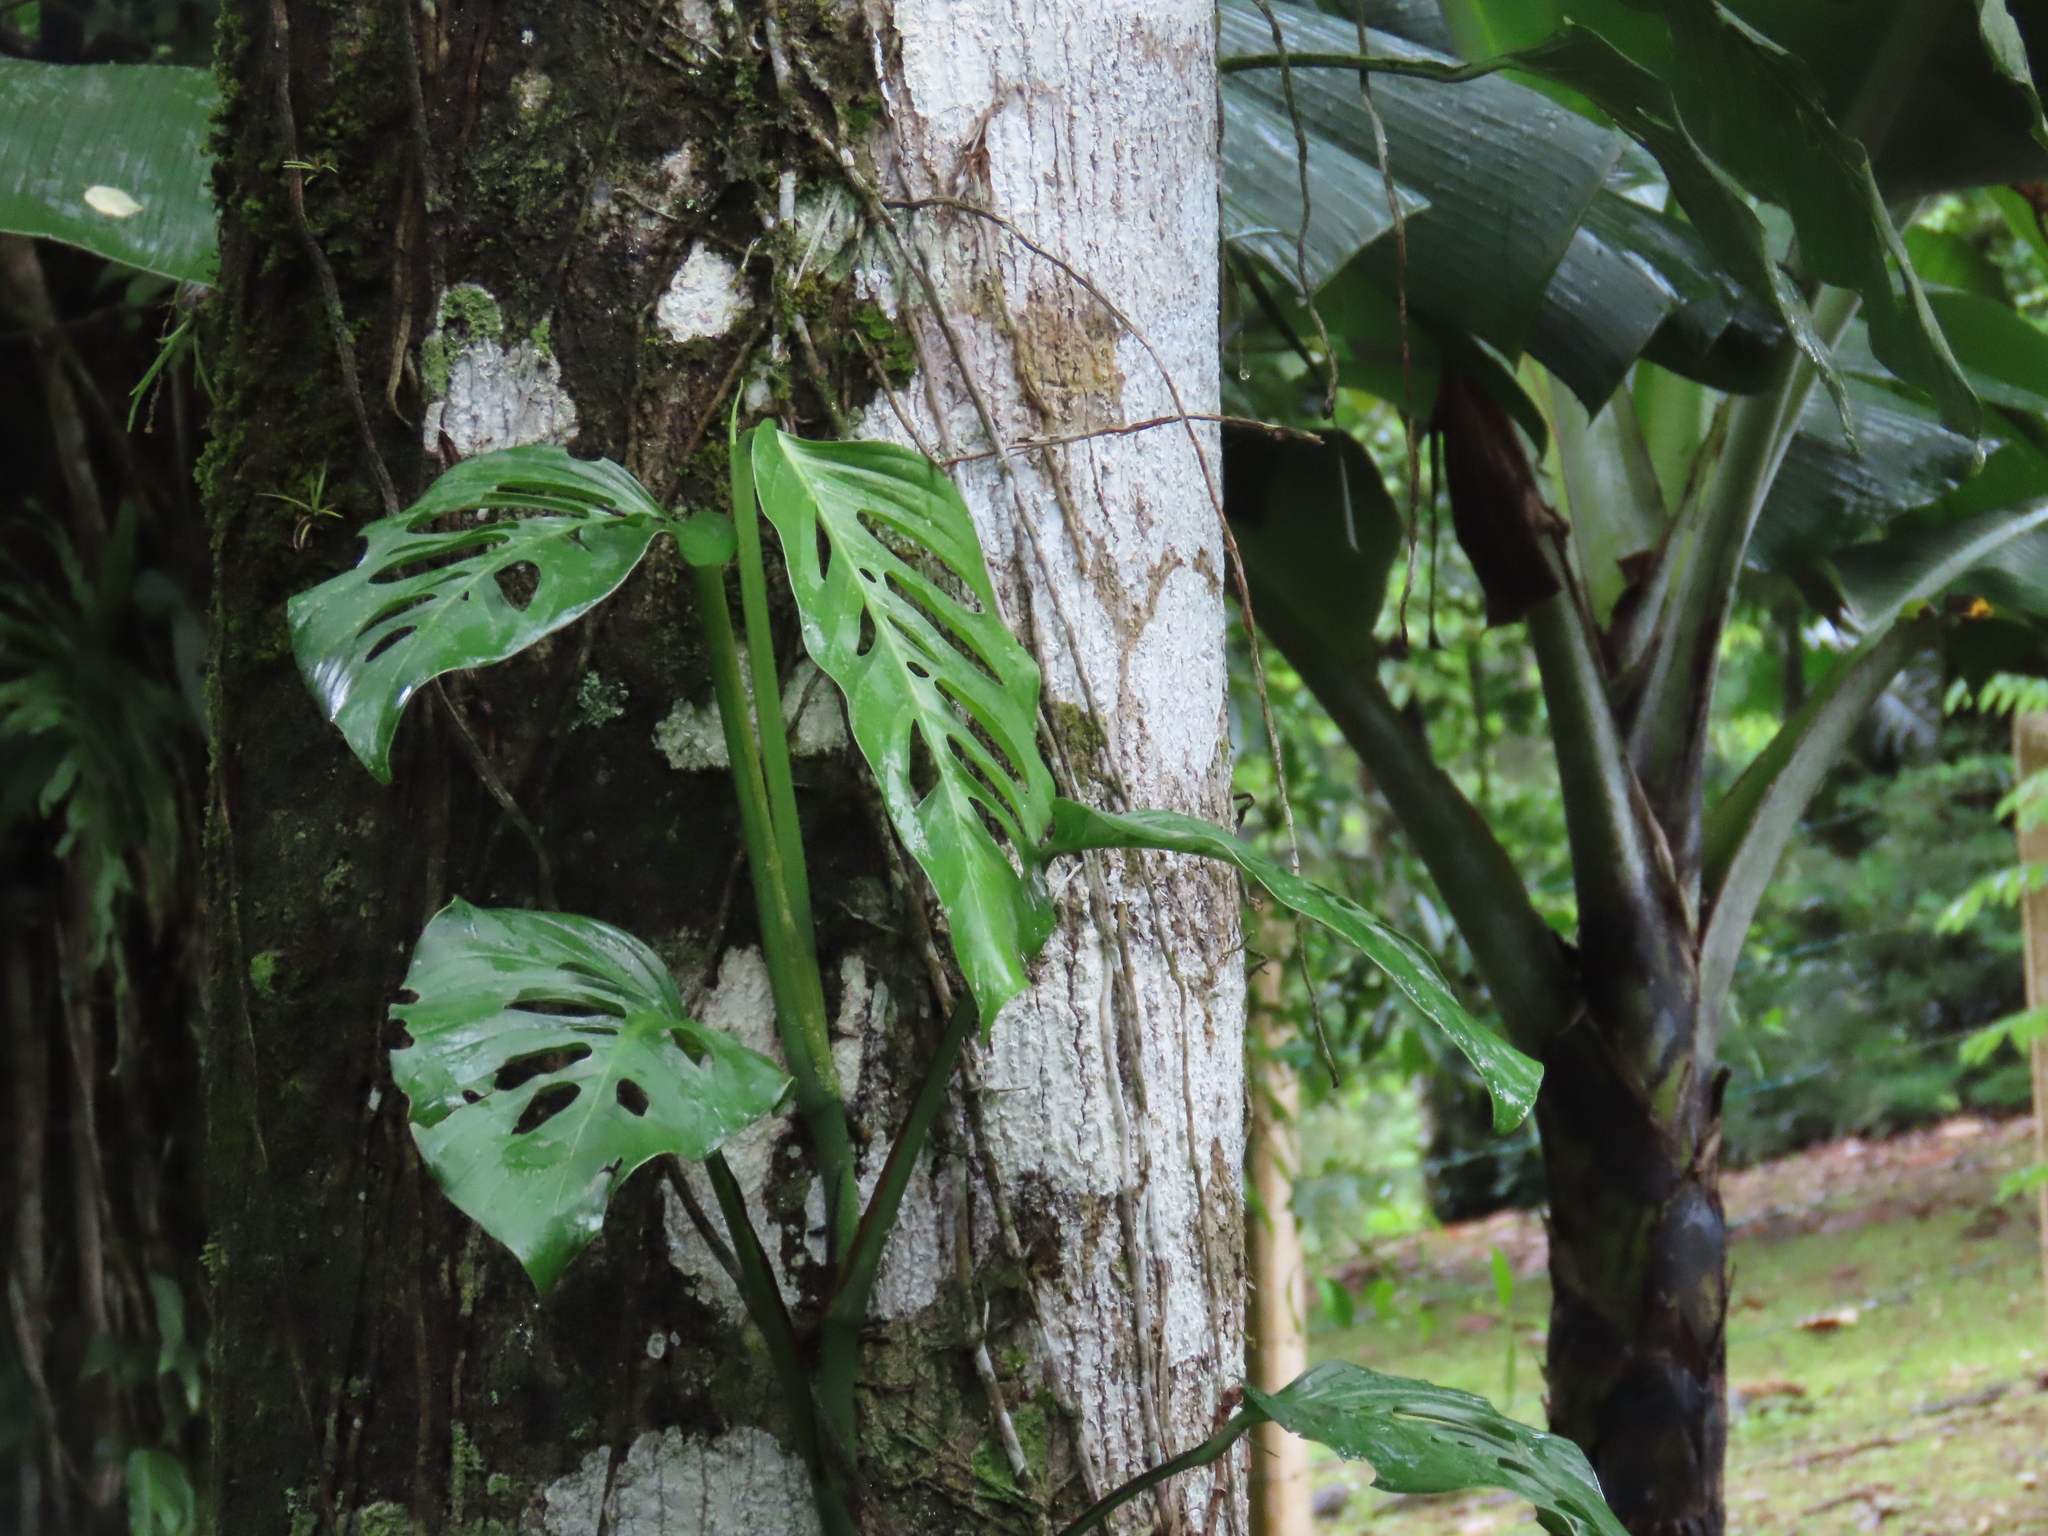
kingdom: Plantae
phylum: Tracheophyta
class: Liliopsida
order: Alismatales
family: Araceae
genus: Monstera
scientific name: Monstera adansonii
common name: Tarovine
